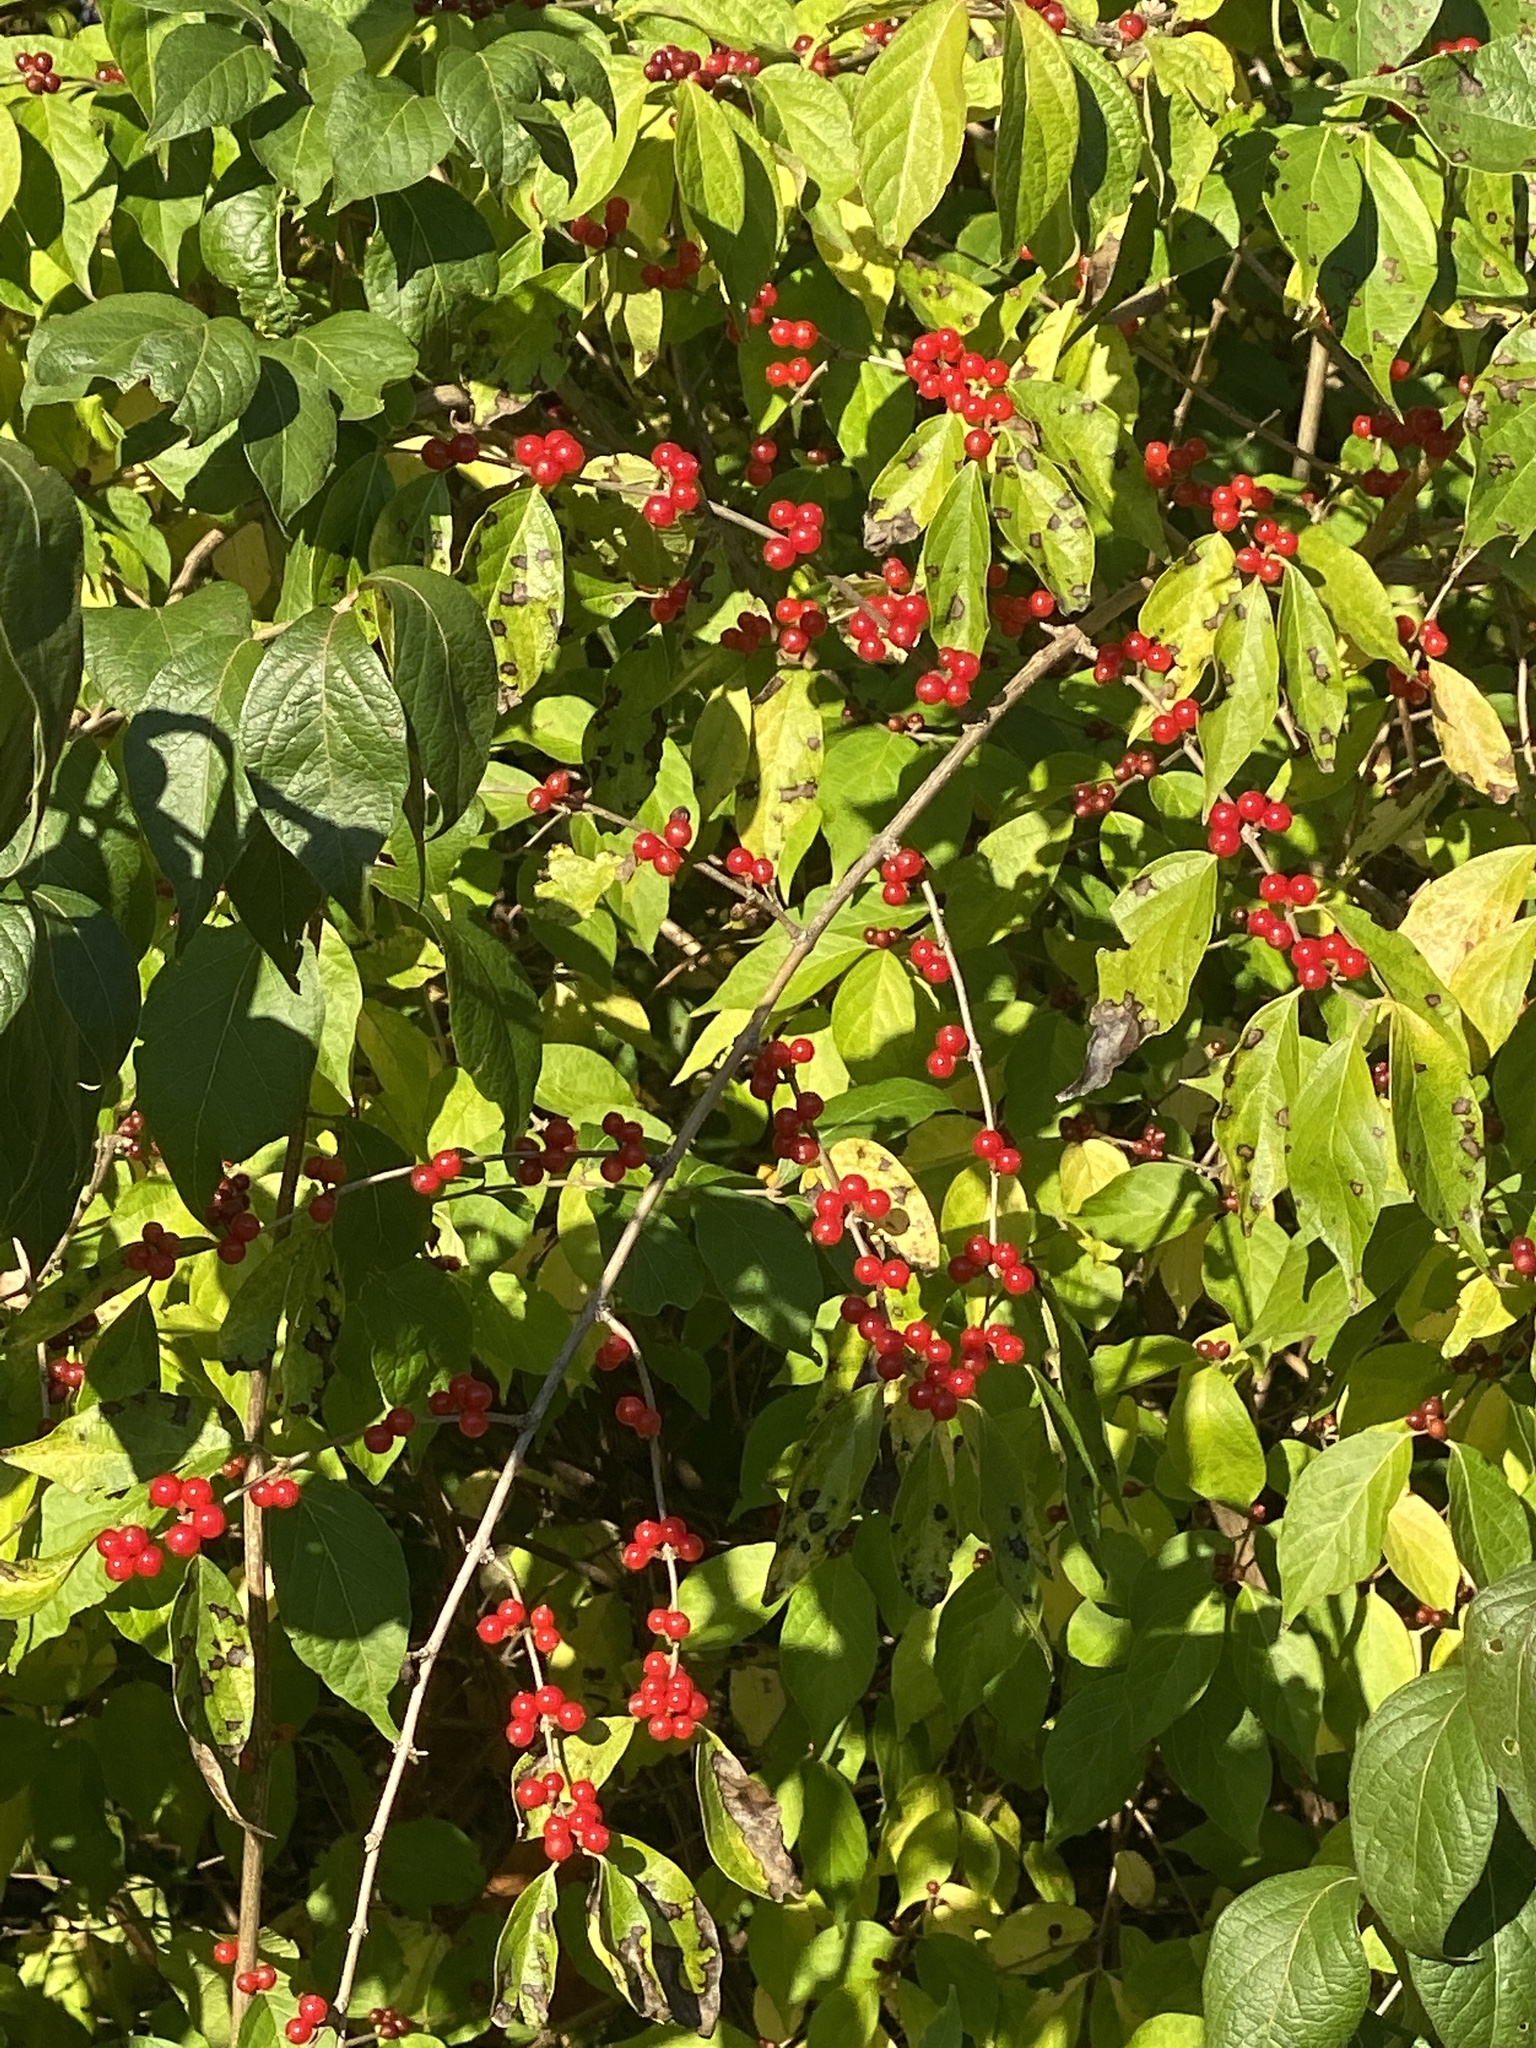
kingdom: Plantae
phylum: Tracheophyta
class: Magnoliopsida
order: Dipsacales
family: Caprifoliaceae
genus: Lonicera
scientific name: Lonicera maackii
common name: Amur honeysuckle
